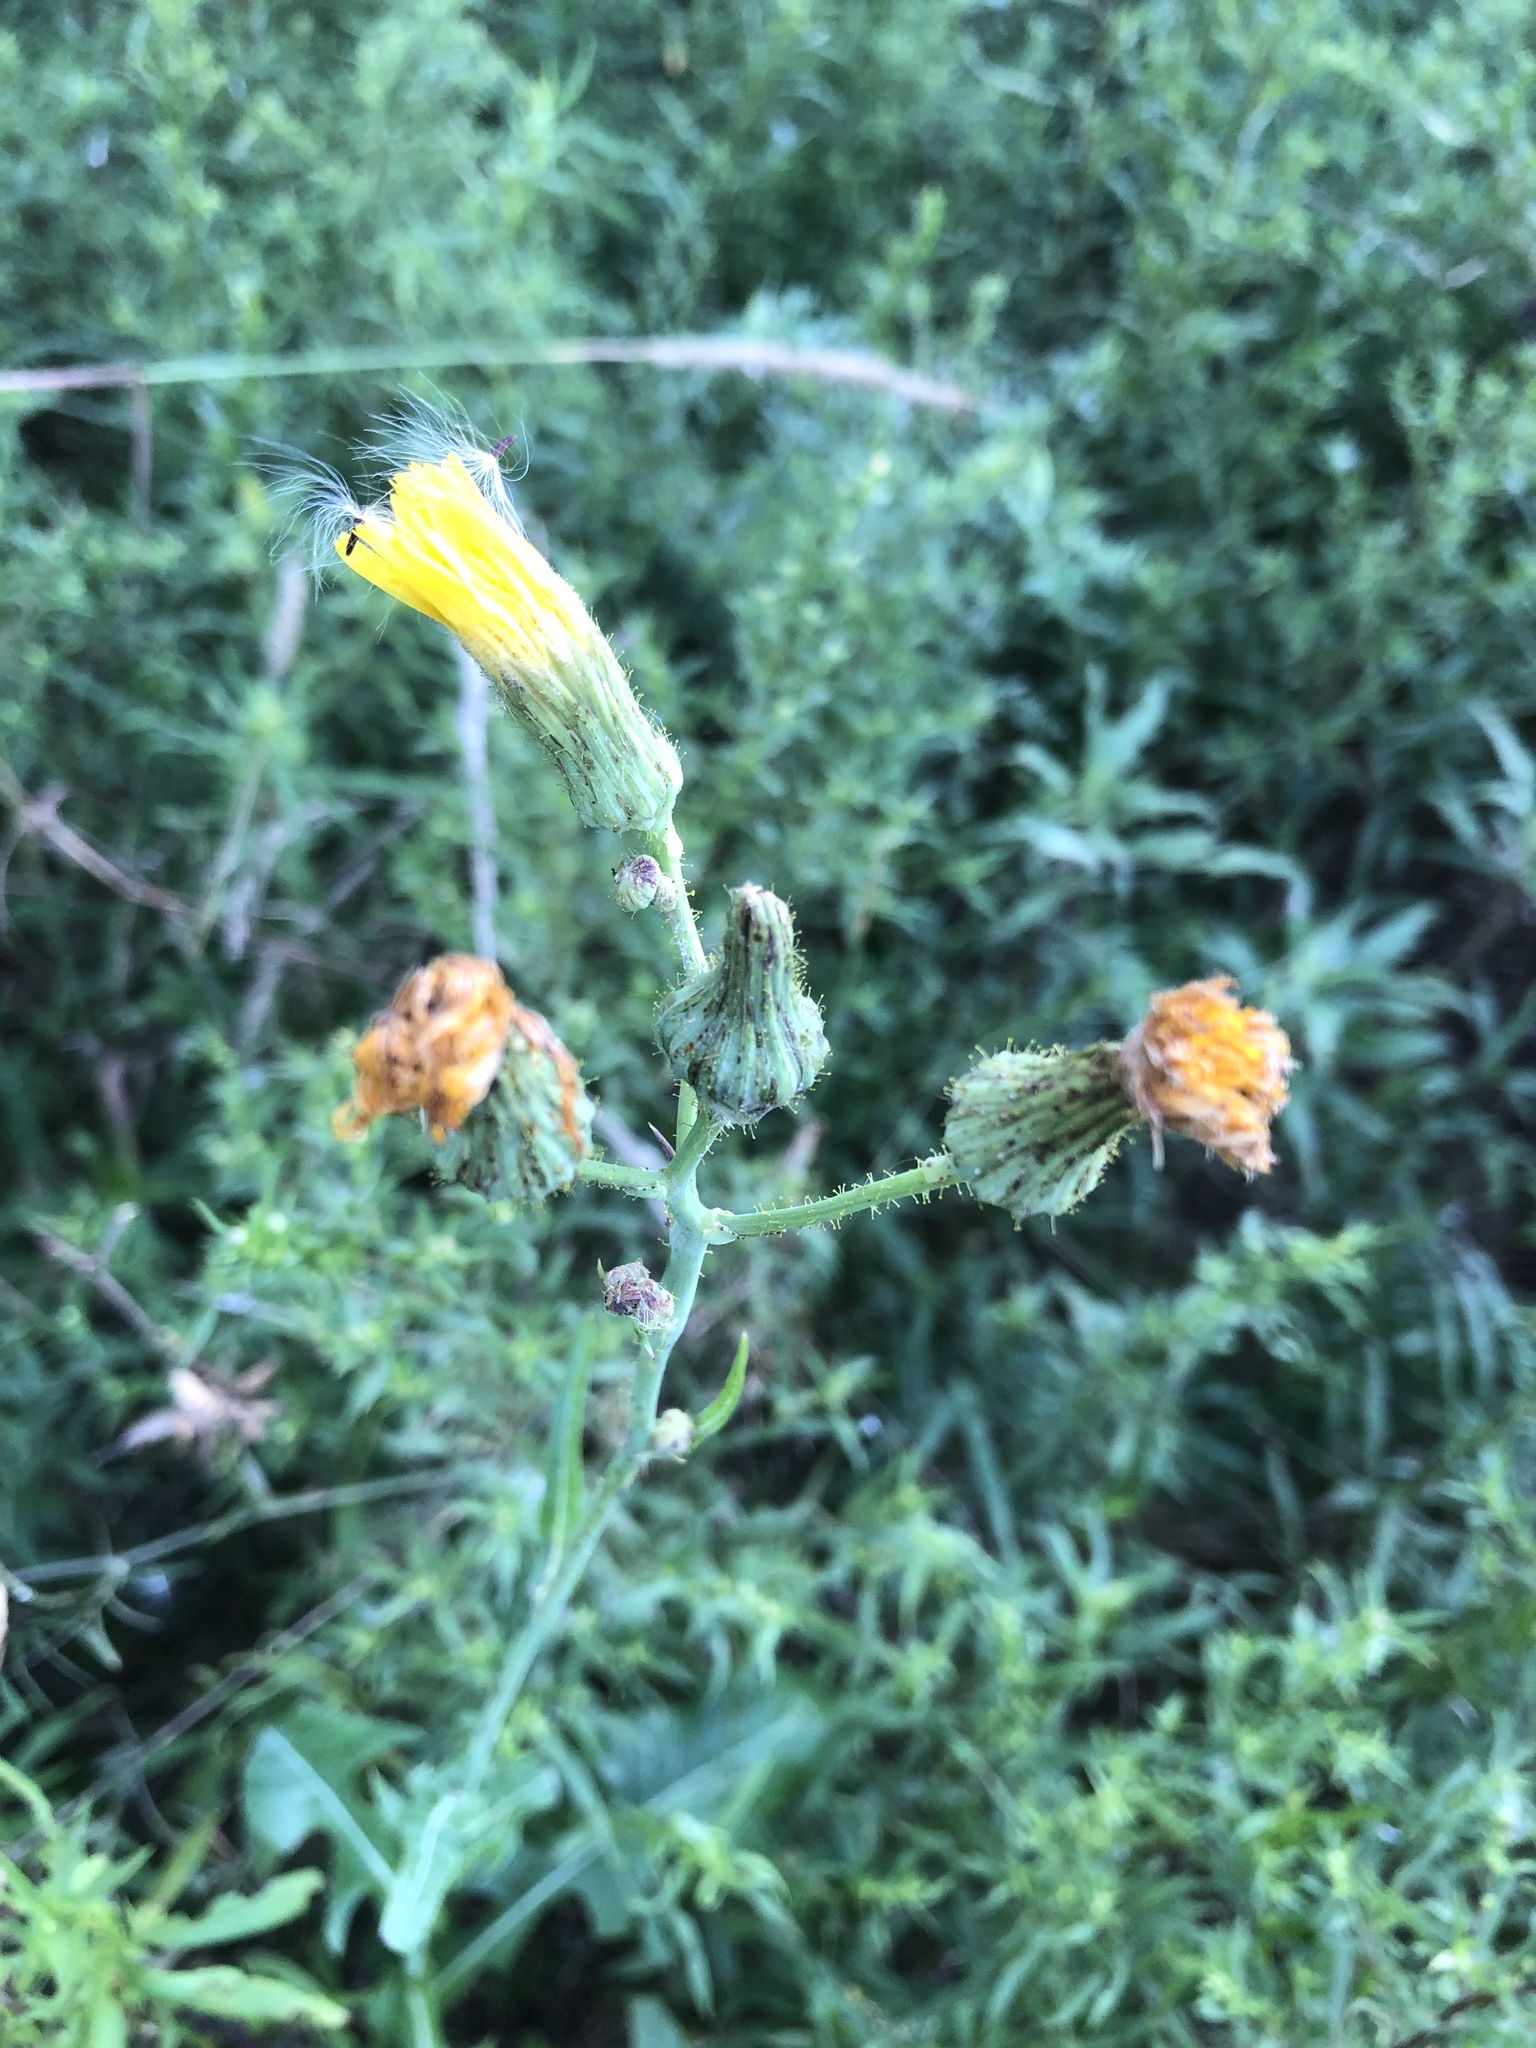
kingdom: Plantae
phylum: Tracheophyta
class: Magnoliopsida
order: Asterales
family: Asteraceae
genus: Sonchus
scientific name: Sonchus arvensis
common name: Perennial sow-thistle
